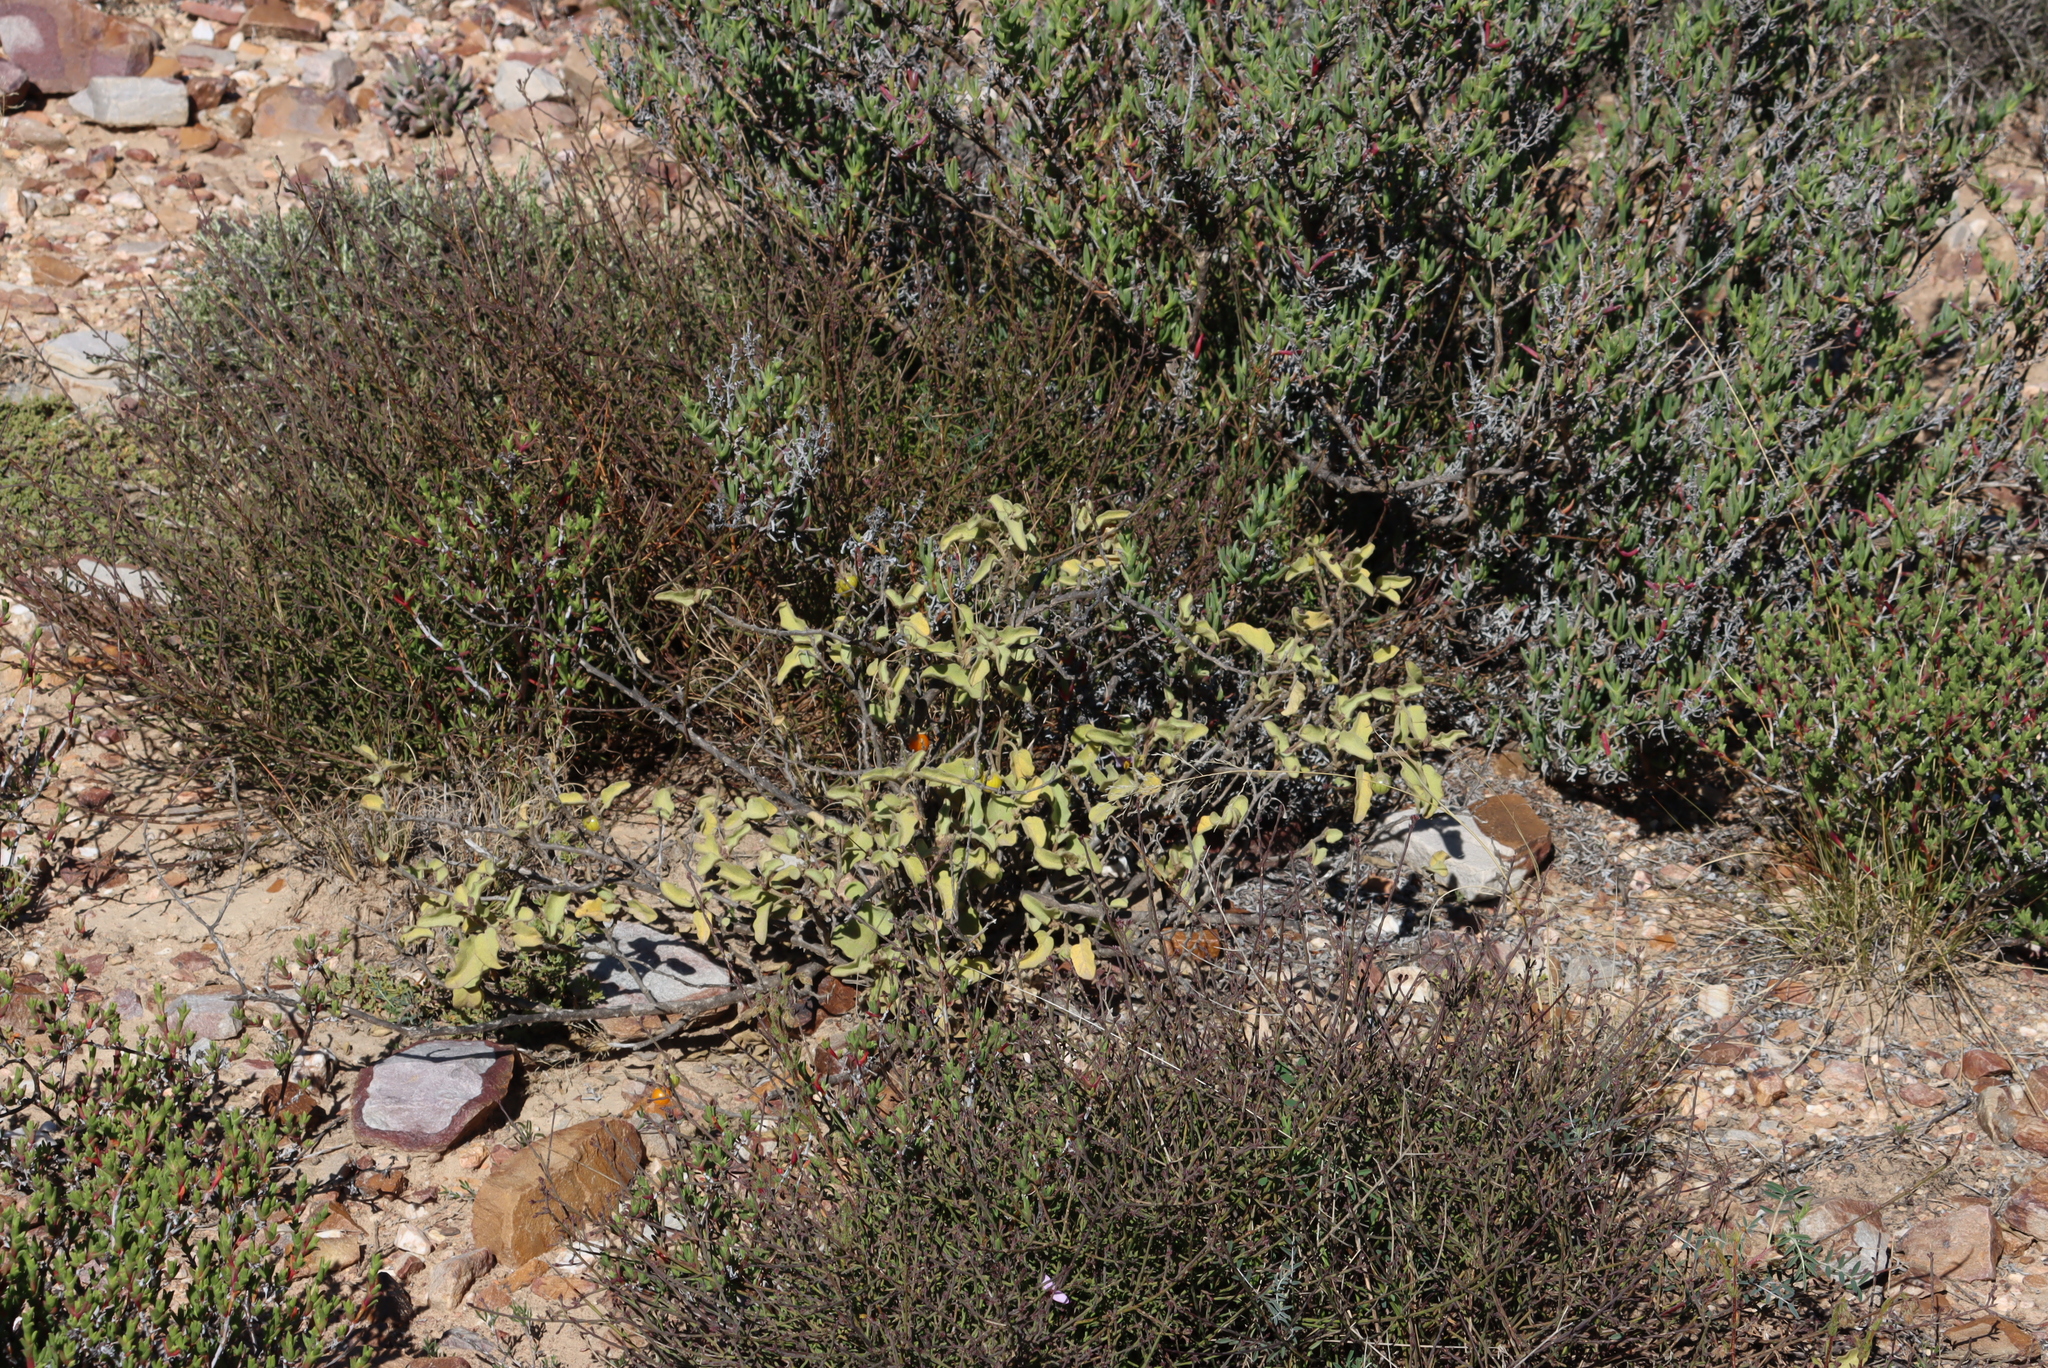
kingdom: Plantae
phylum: Tracheophyta
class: Magnoliopsida
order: Solanales
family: Solanaceae
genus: Solanum
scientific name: Solanum tomentosum
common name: Wild aubergine
